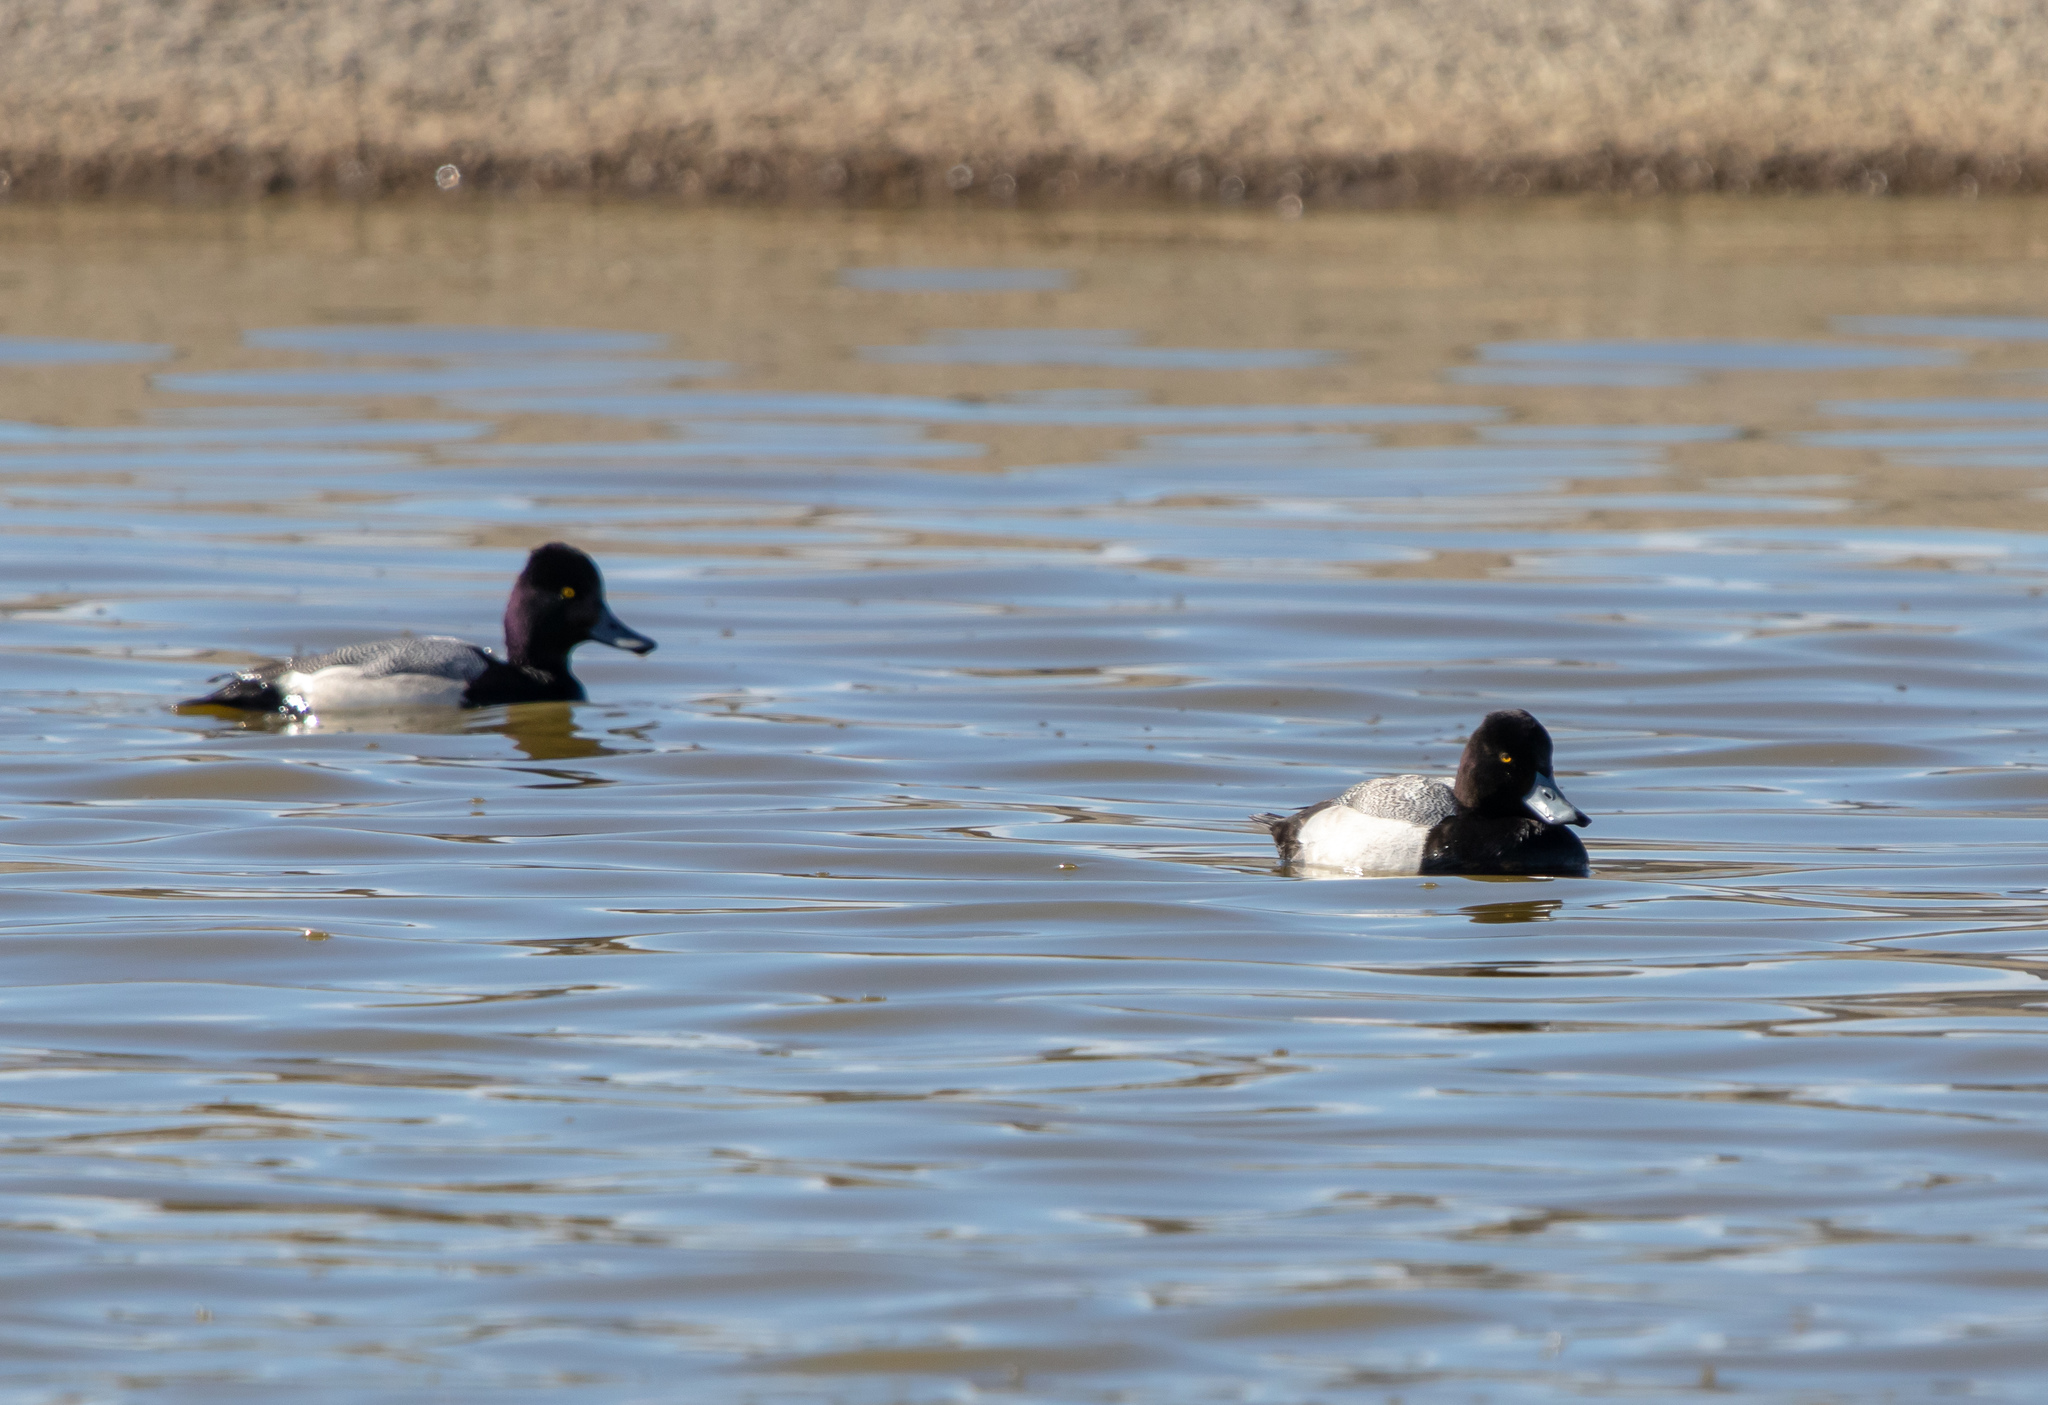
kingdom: Animalia
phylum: Chordata
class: Aves
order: Anseriformes
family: Anatidae
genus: Aythya
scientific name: Aythya affinis
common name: Lesser scaup
